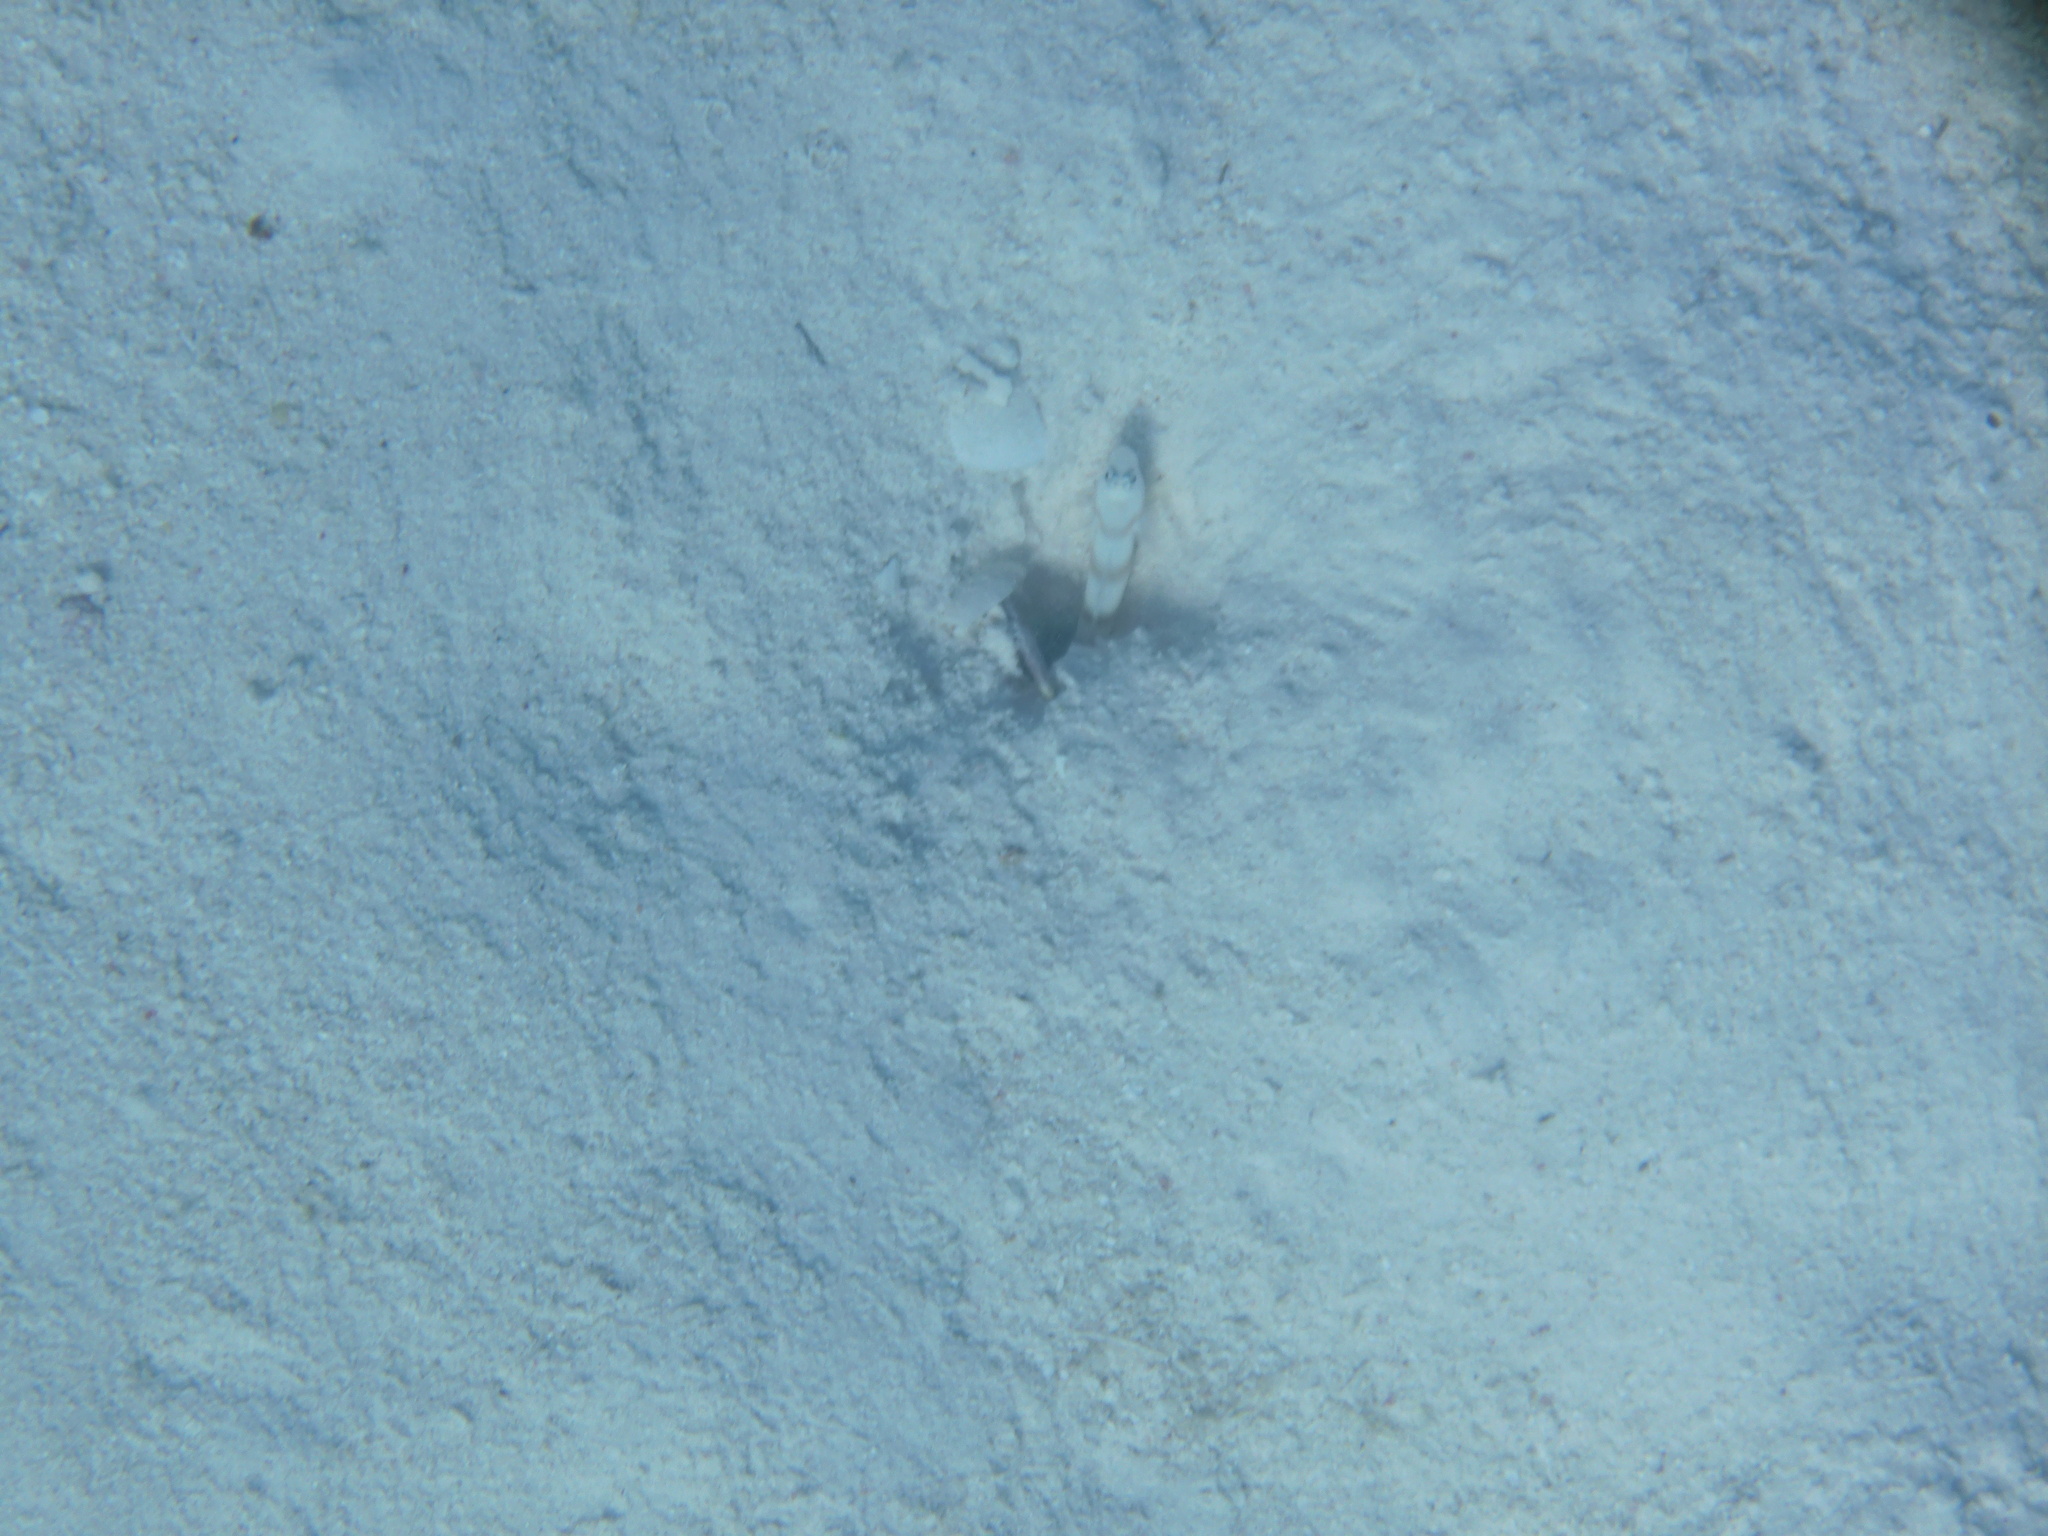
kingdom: Animalia
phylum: Chordata
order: Perciformes
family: Gobiidae
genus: Amblyeleotris
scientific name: Amblyeleotris steinitzi
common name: Steinitz' prawn-goby
